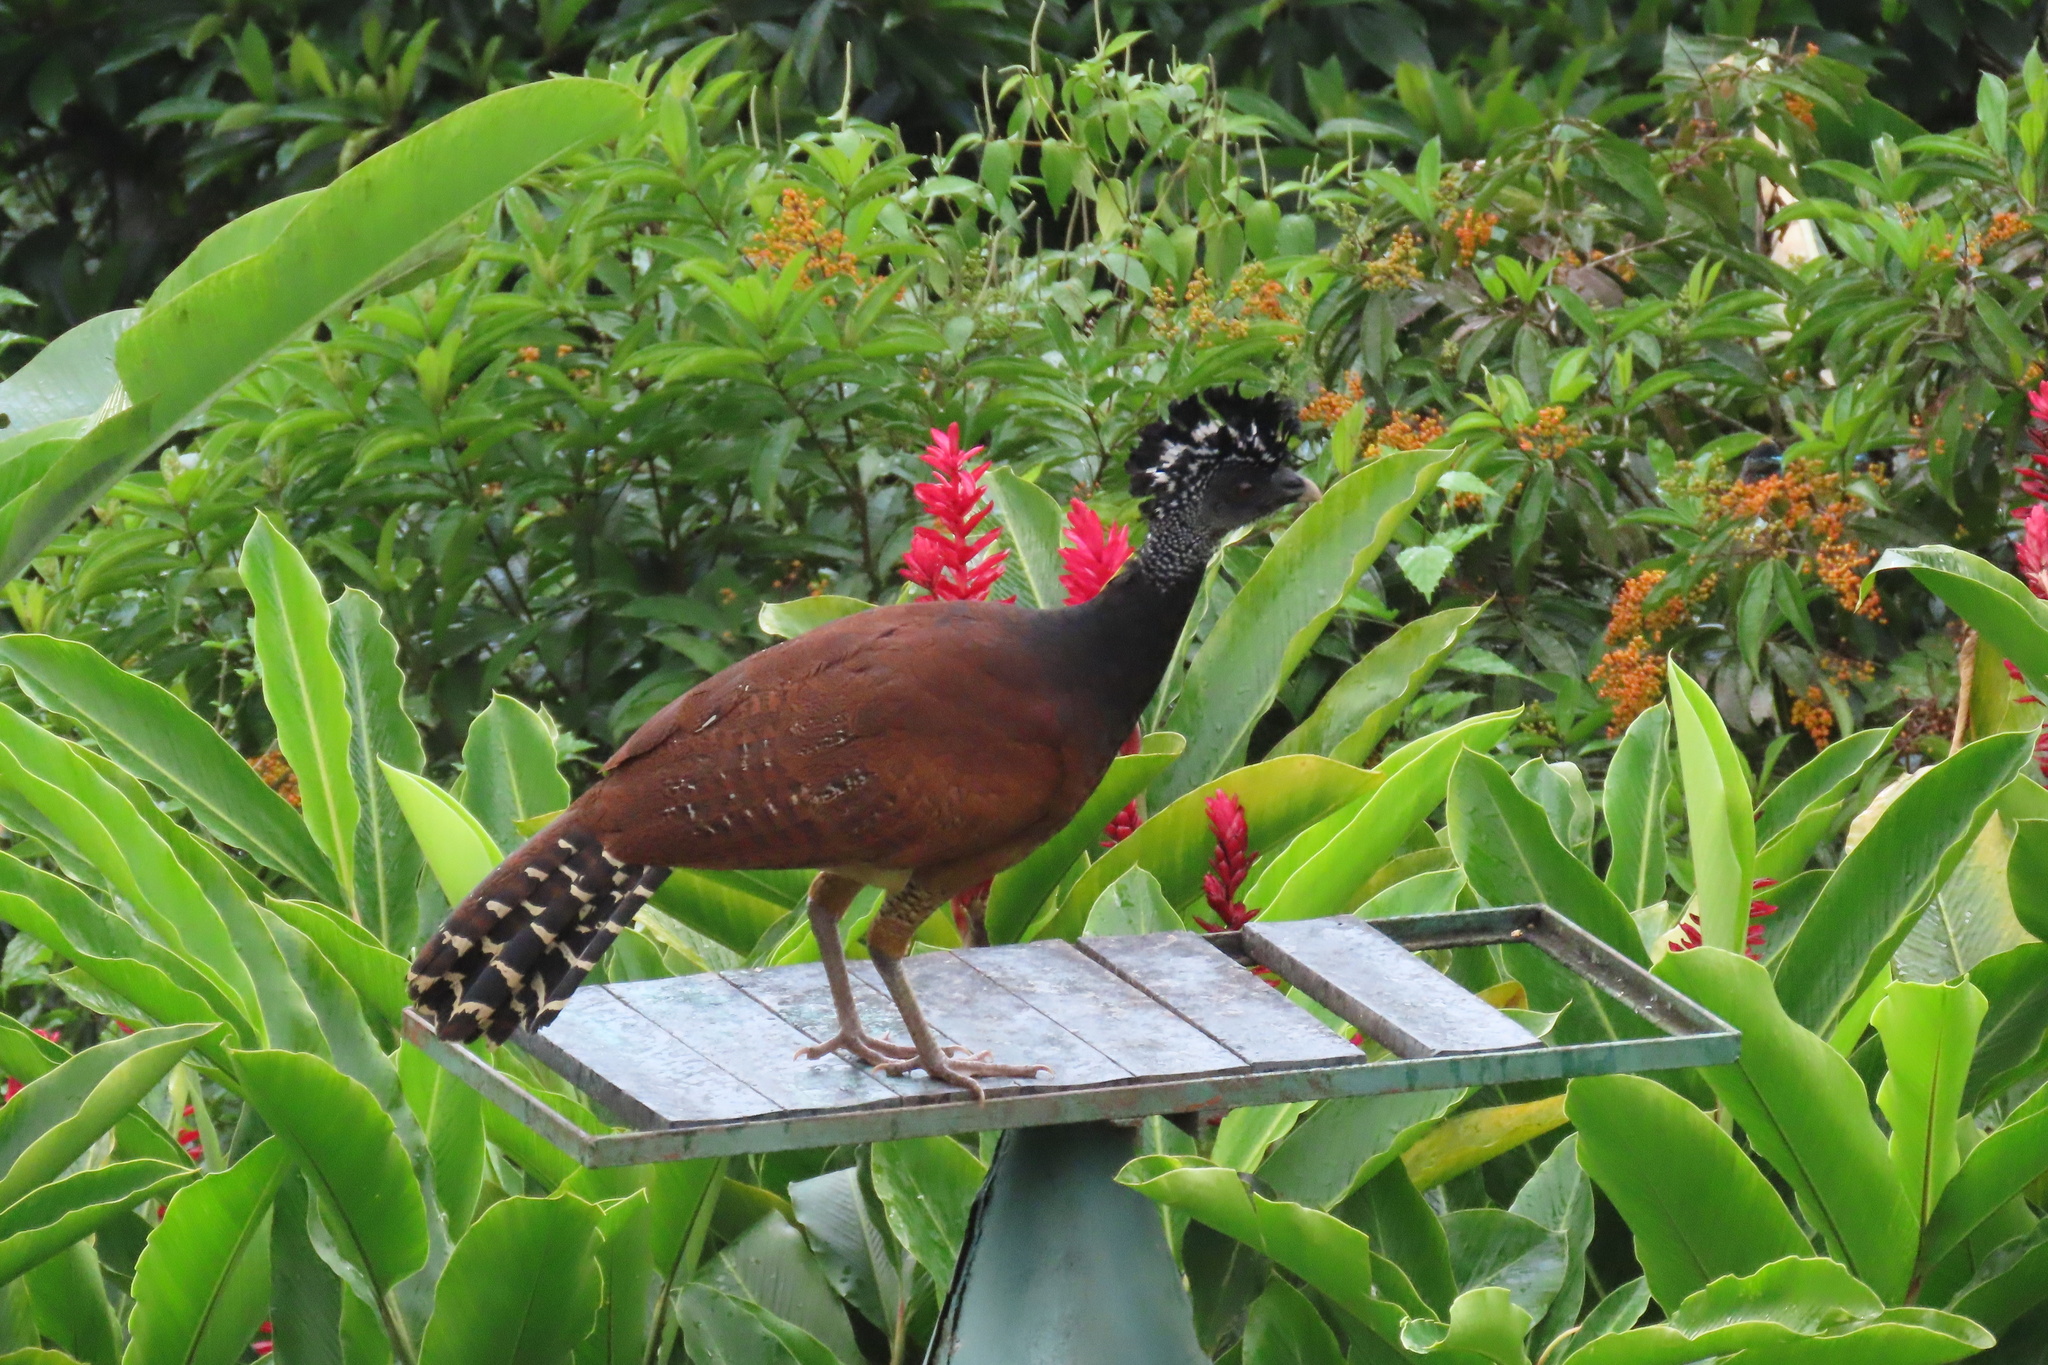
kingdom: Animalia
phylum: Chordata
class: Aves
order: Galliformes
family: Cracidae
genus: Crax
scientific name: Crax rubra
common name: Great curassow
